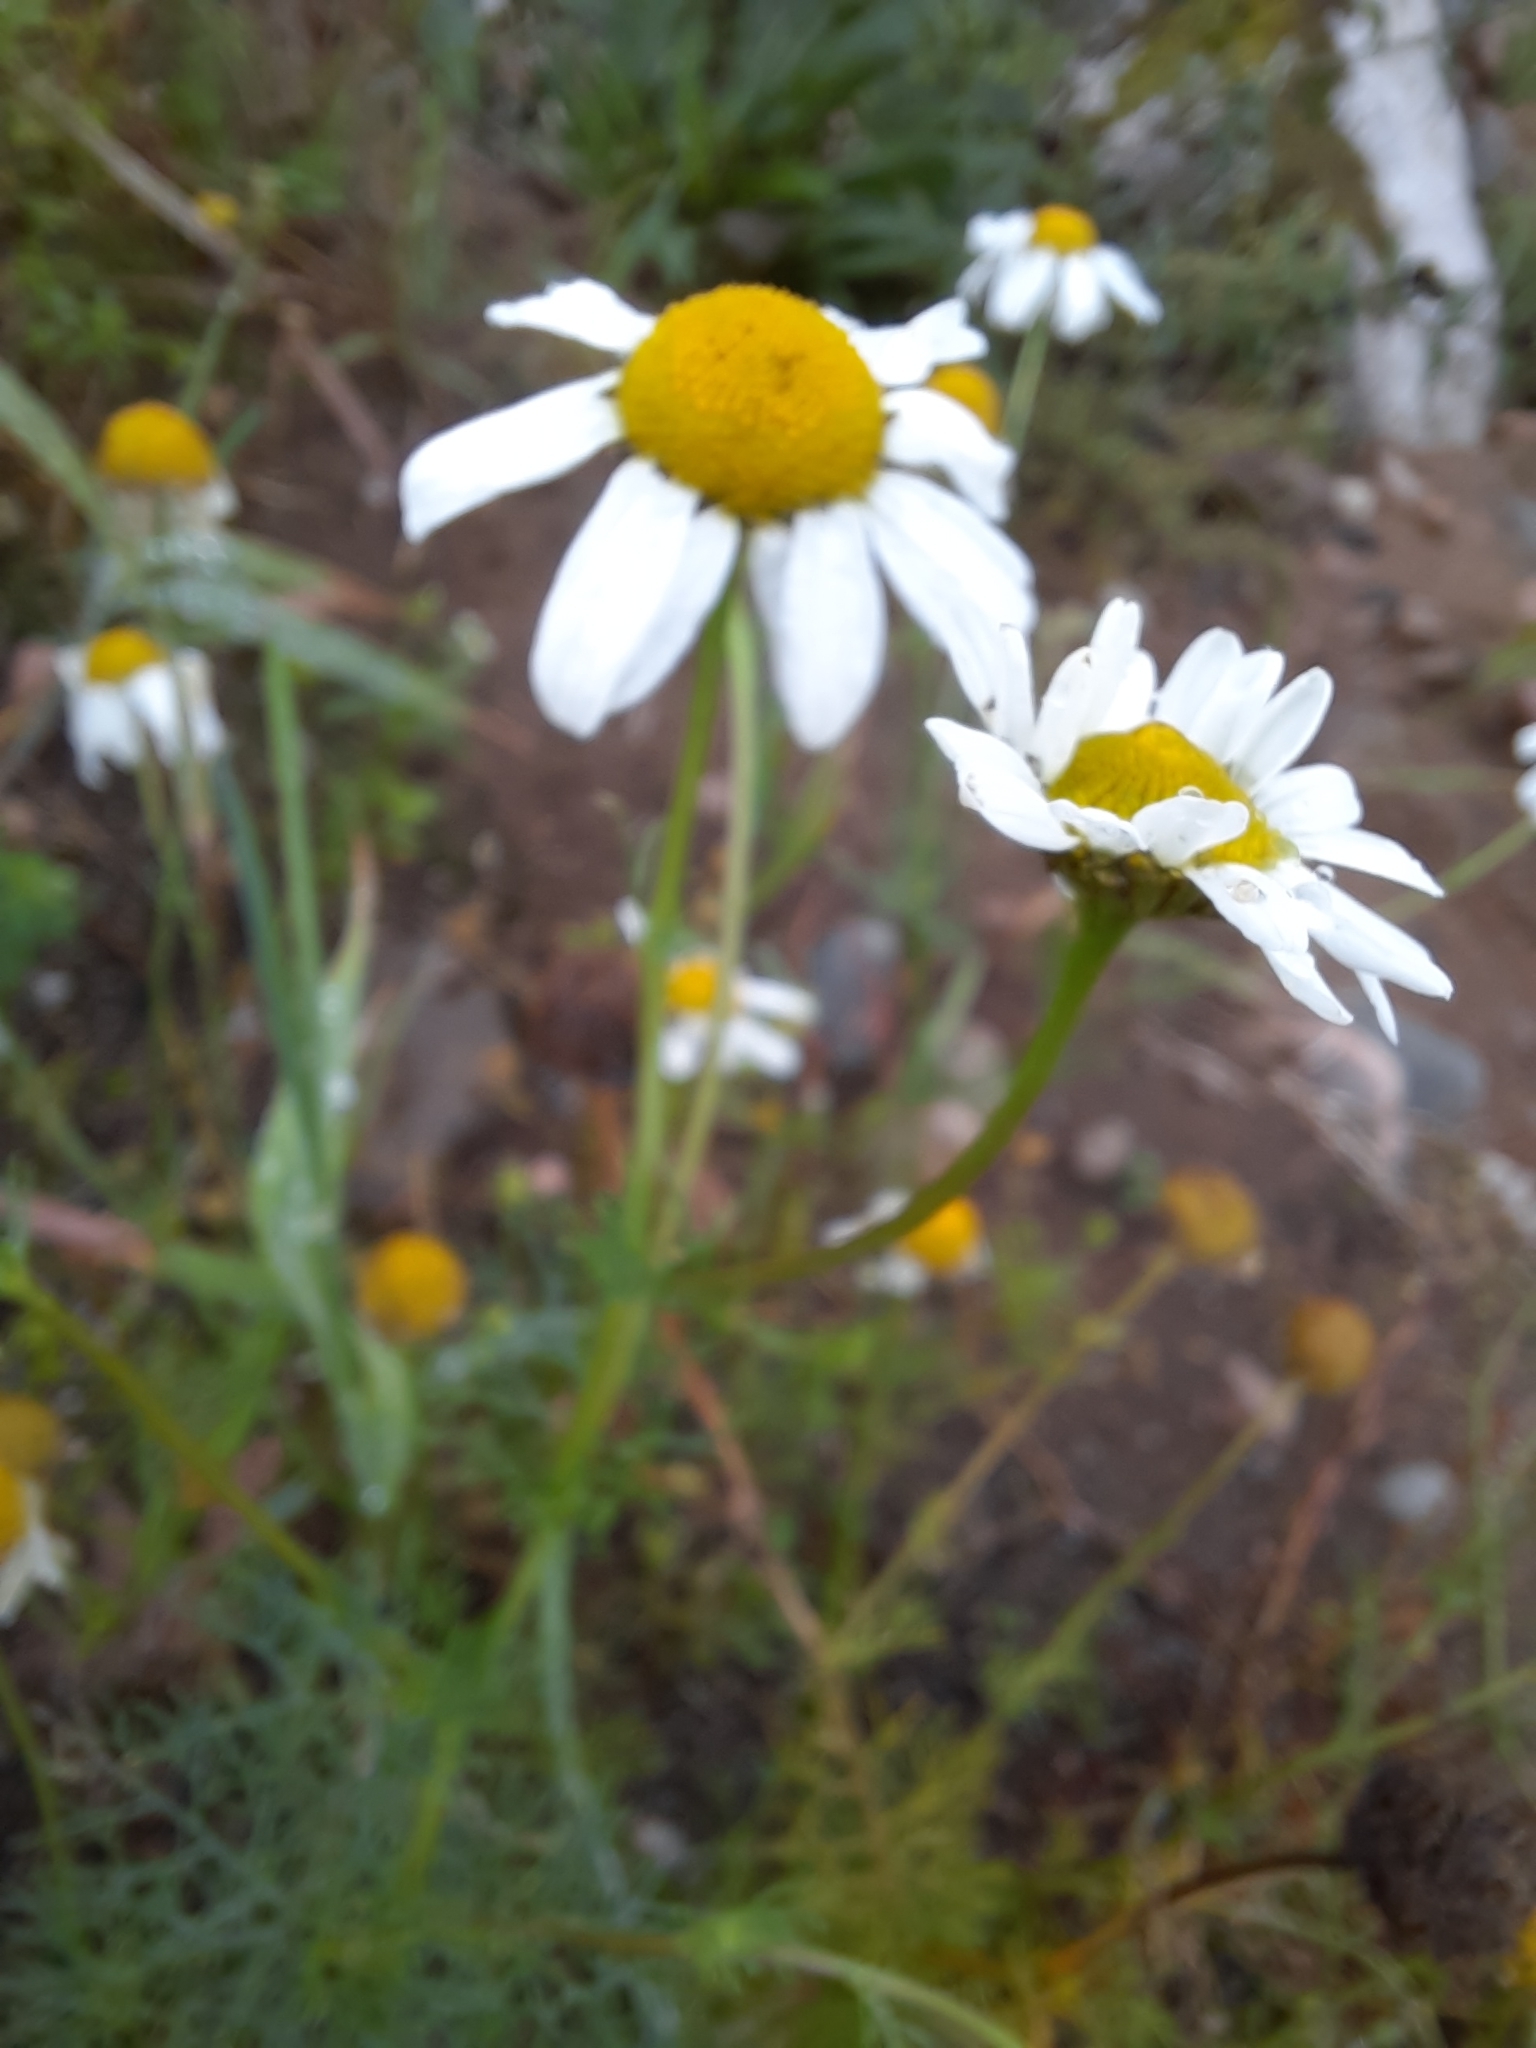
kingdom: Plantae
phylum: Tracheophyta
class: Magnoliopsida
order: Asterales
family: Asteraceae
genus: Tripleurospermum
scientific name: Tripleurospermum inodorum
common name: Scentless mayweed
